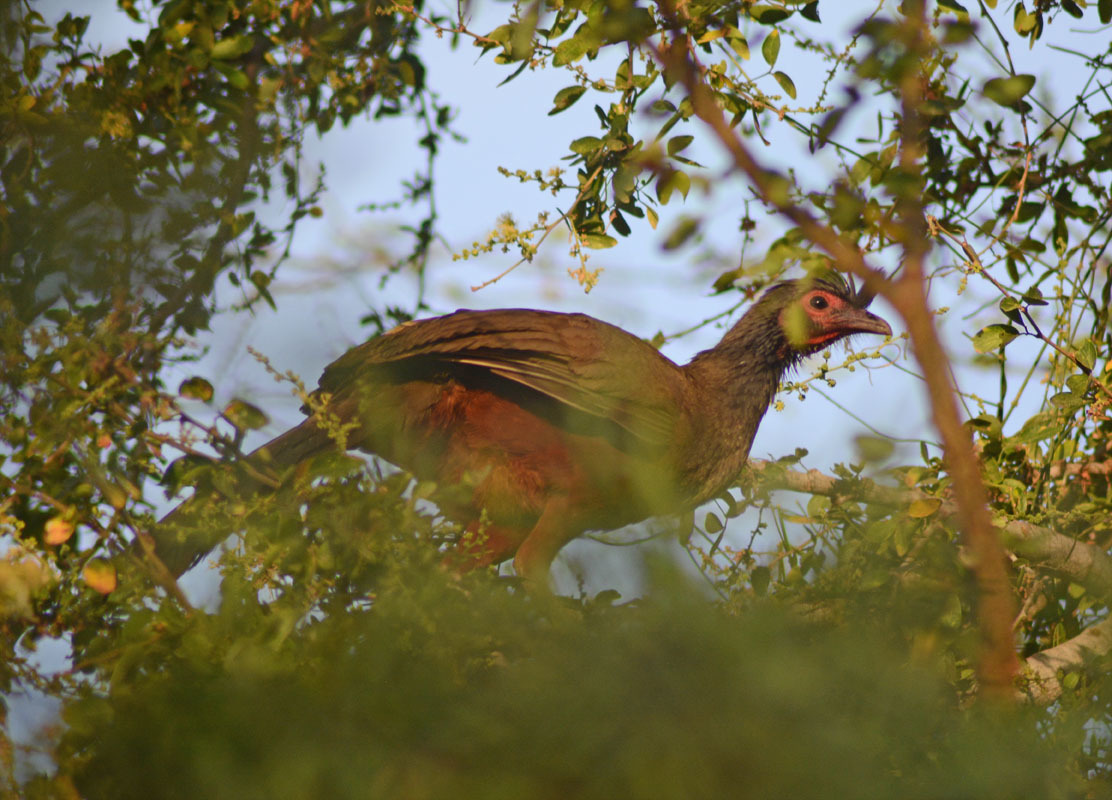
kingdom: Animalia
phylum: Chordata
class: Aves
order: Galliformes
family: Cracidae
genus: Ortalis
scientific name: Ortalis wagleri
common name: Rufous-bellied chachalaca
